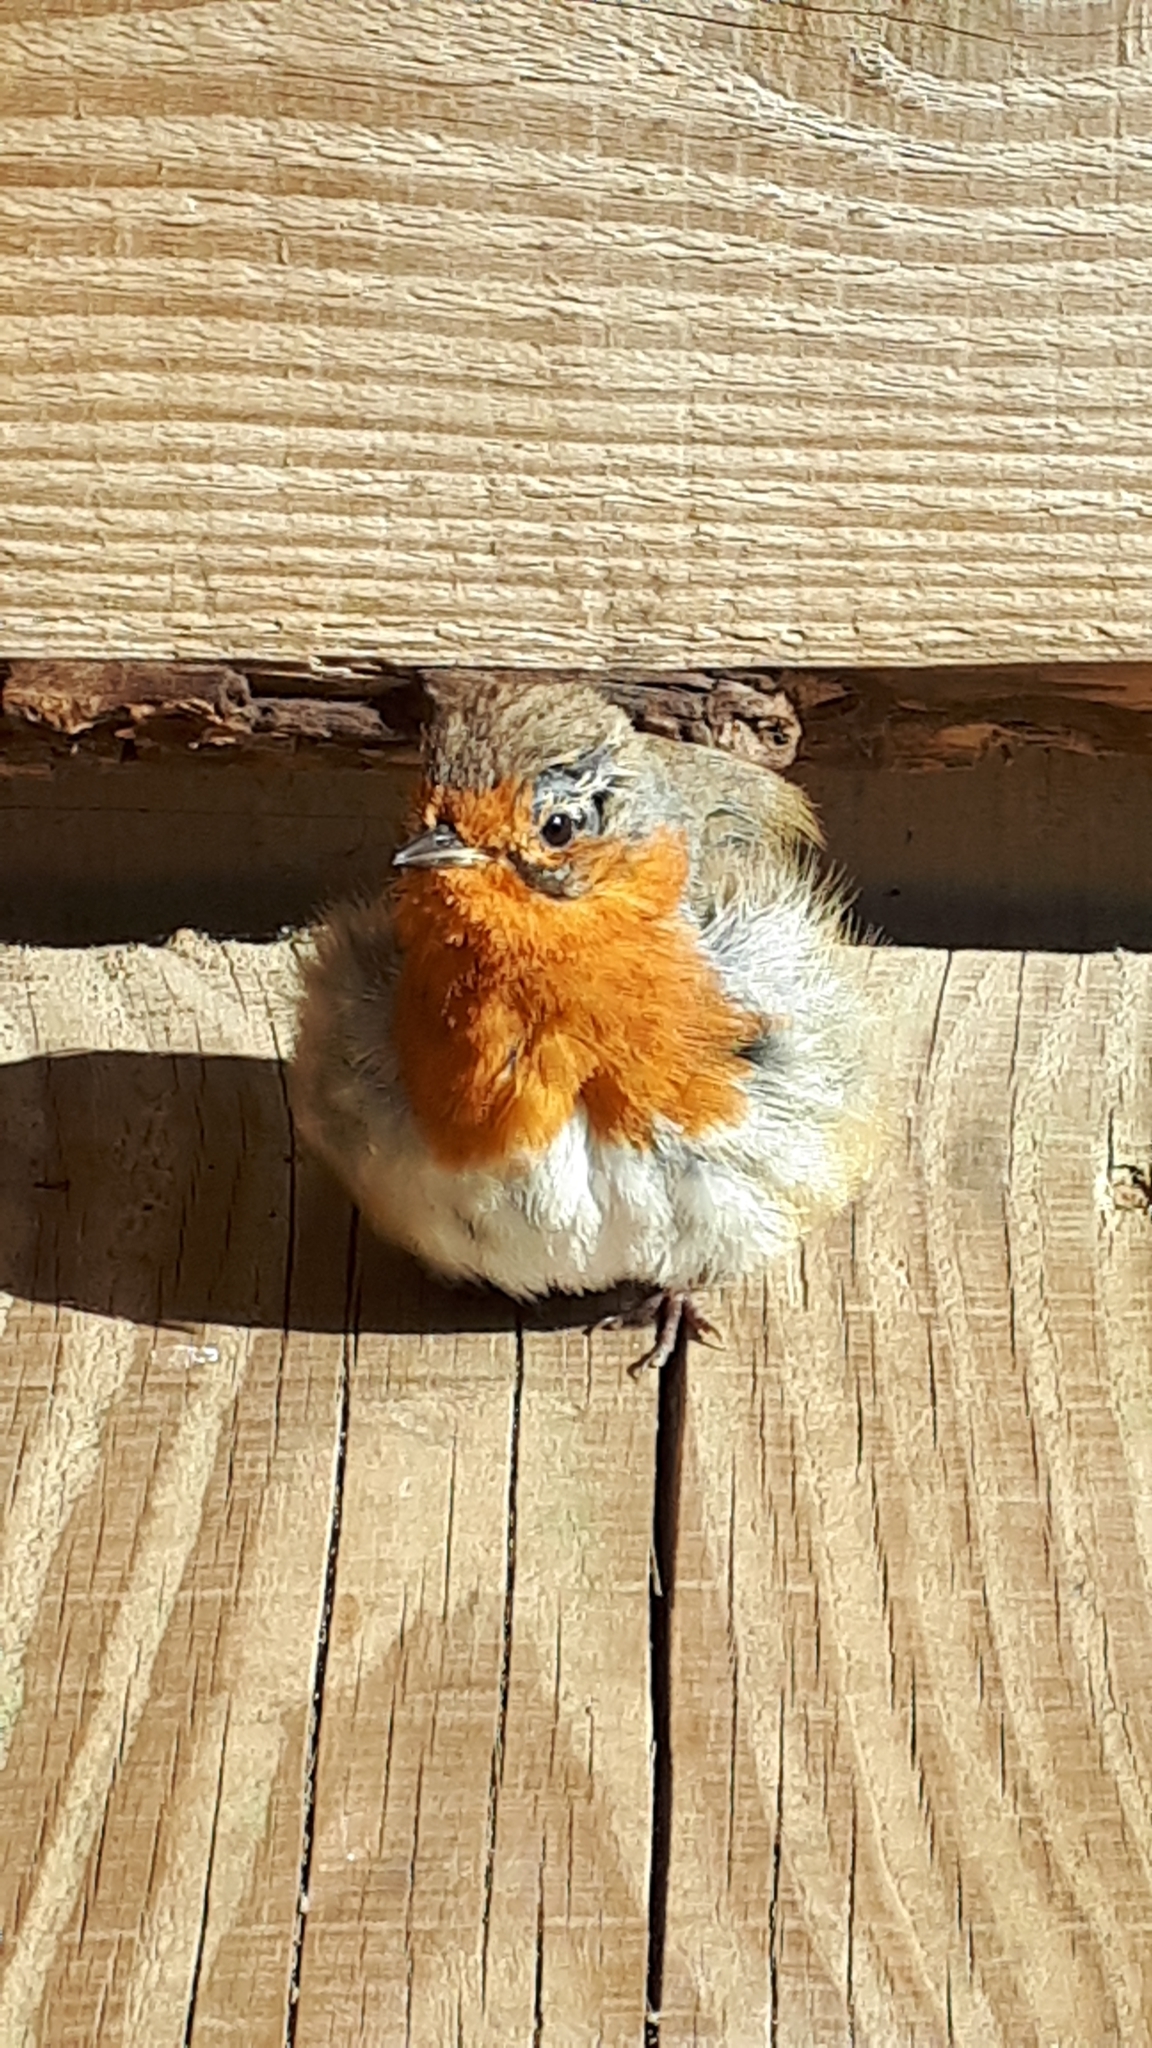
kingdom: Animalia
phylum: Chordata
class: Aves
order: Passeriformes
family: Muscicapidae
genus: Erithacus
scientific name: Erithacus rubecula
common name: European robin
